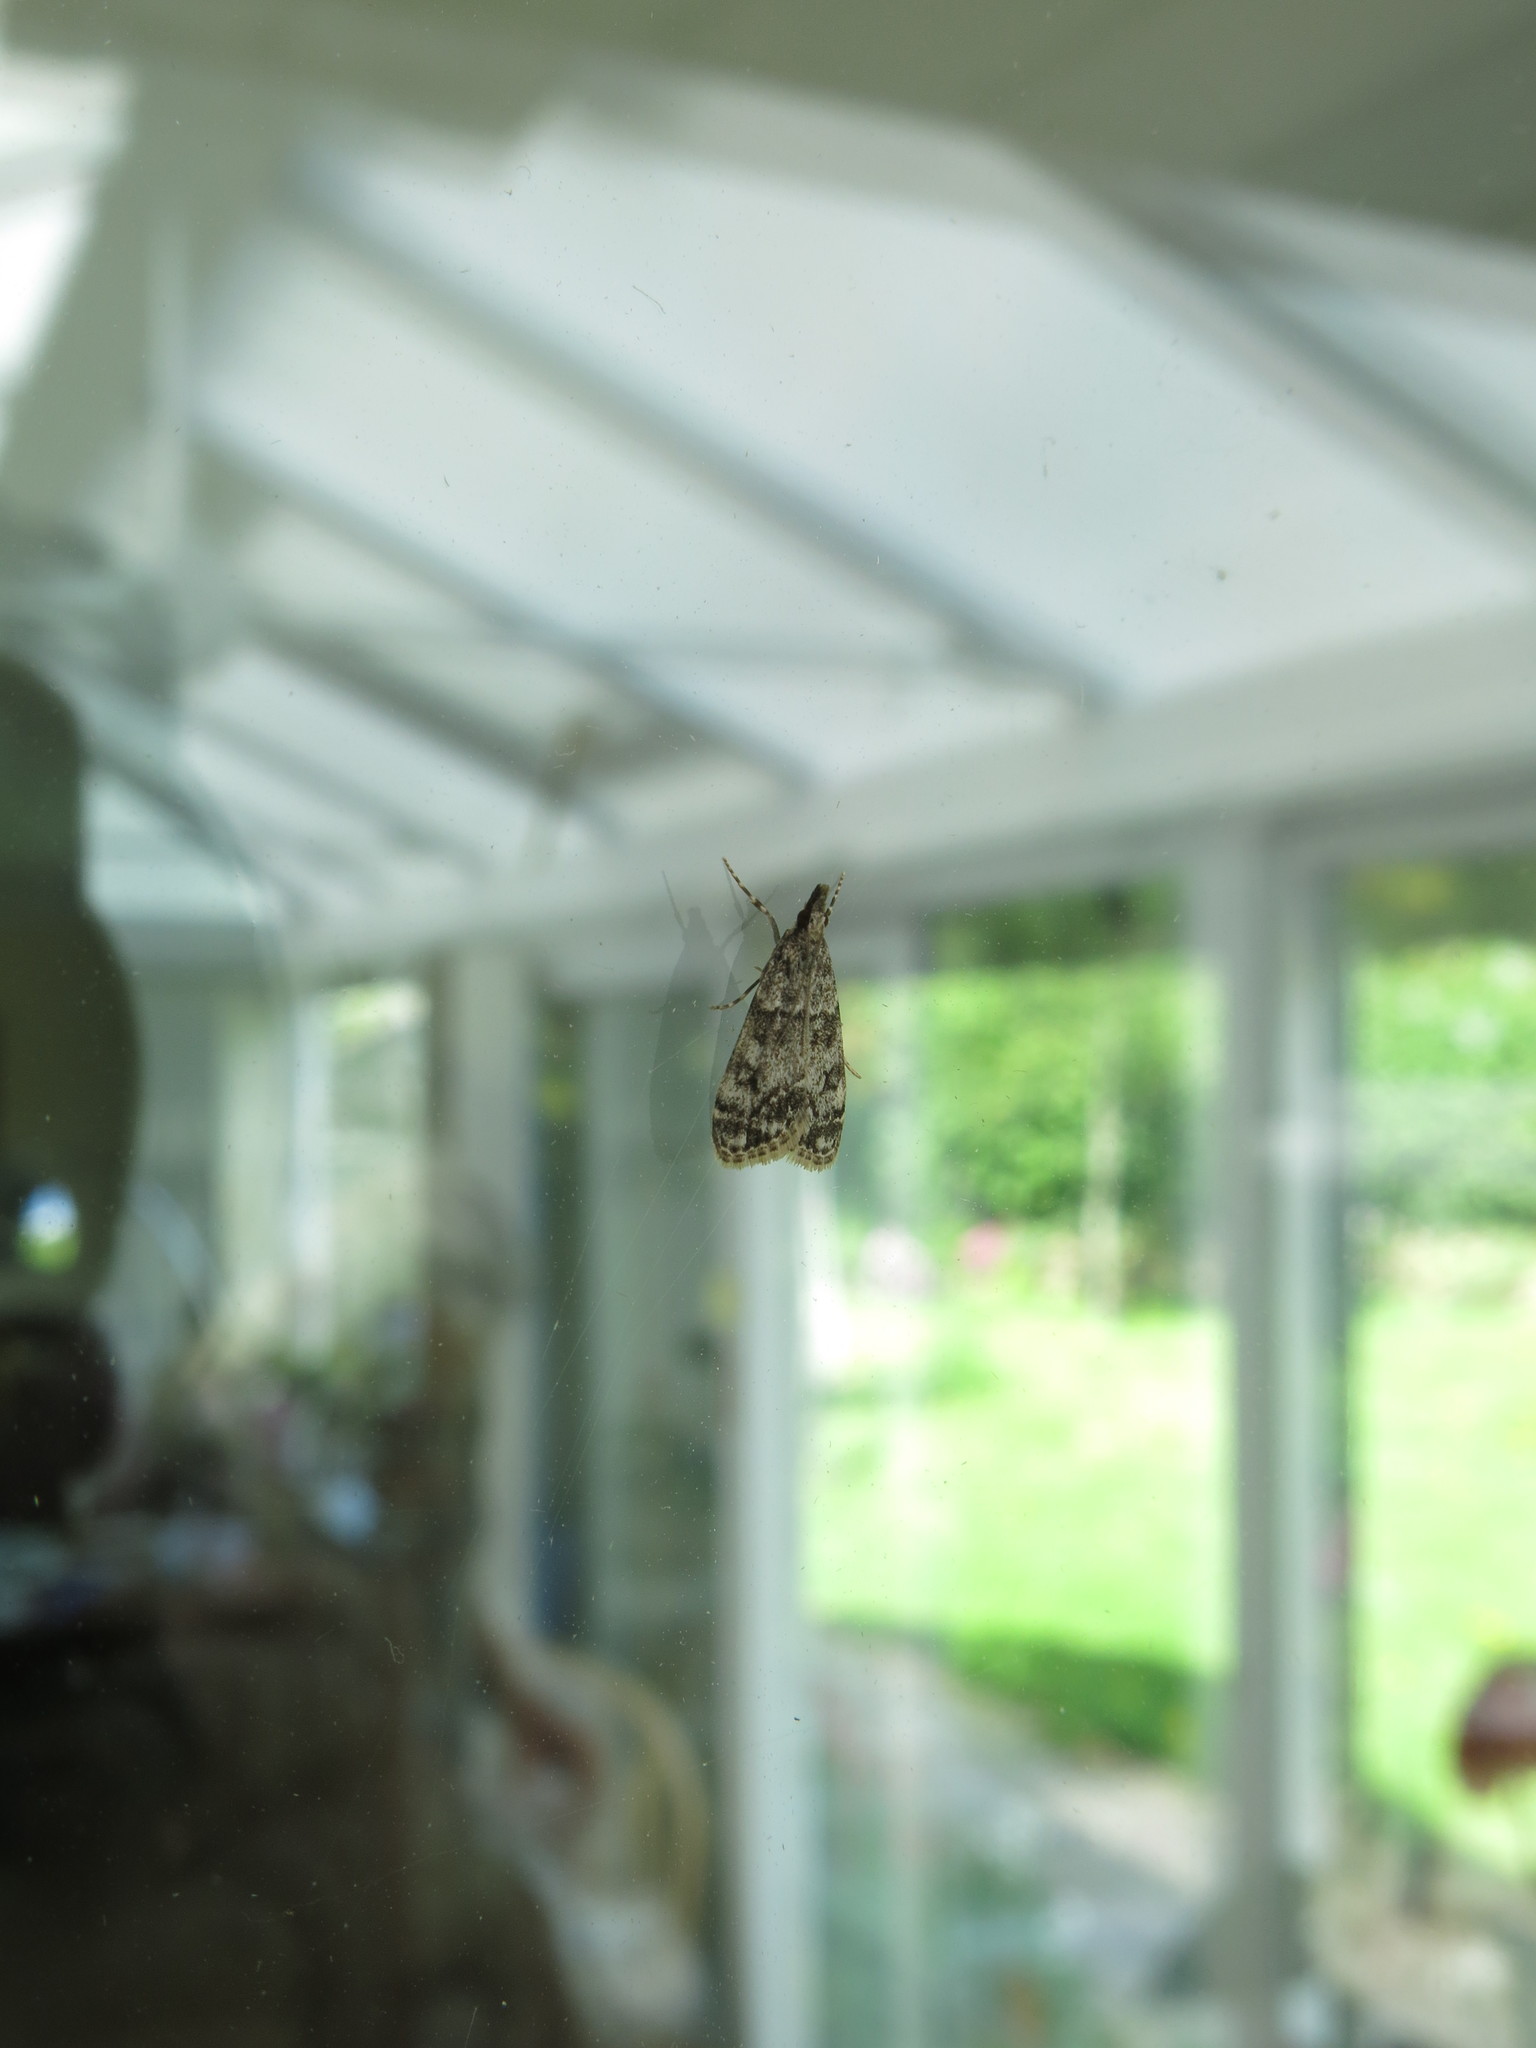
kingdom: Animalia
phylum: Arthropoda
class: Insecta
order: Lepidoptera
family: Crambidae
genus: Eudonia
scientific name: Eudonia lacustrata
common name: Little grey
